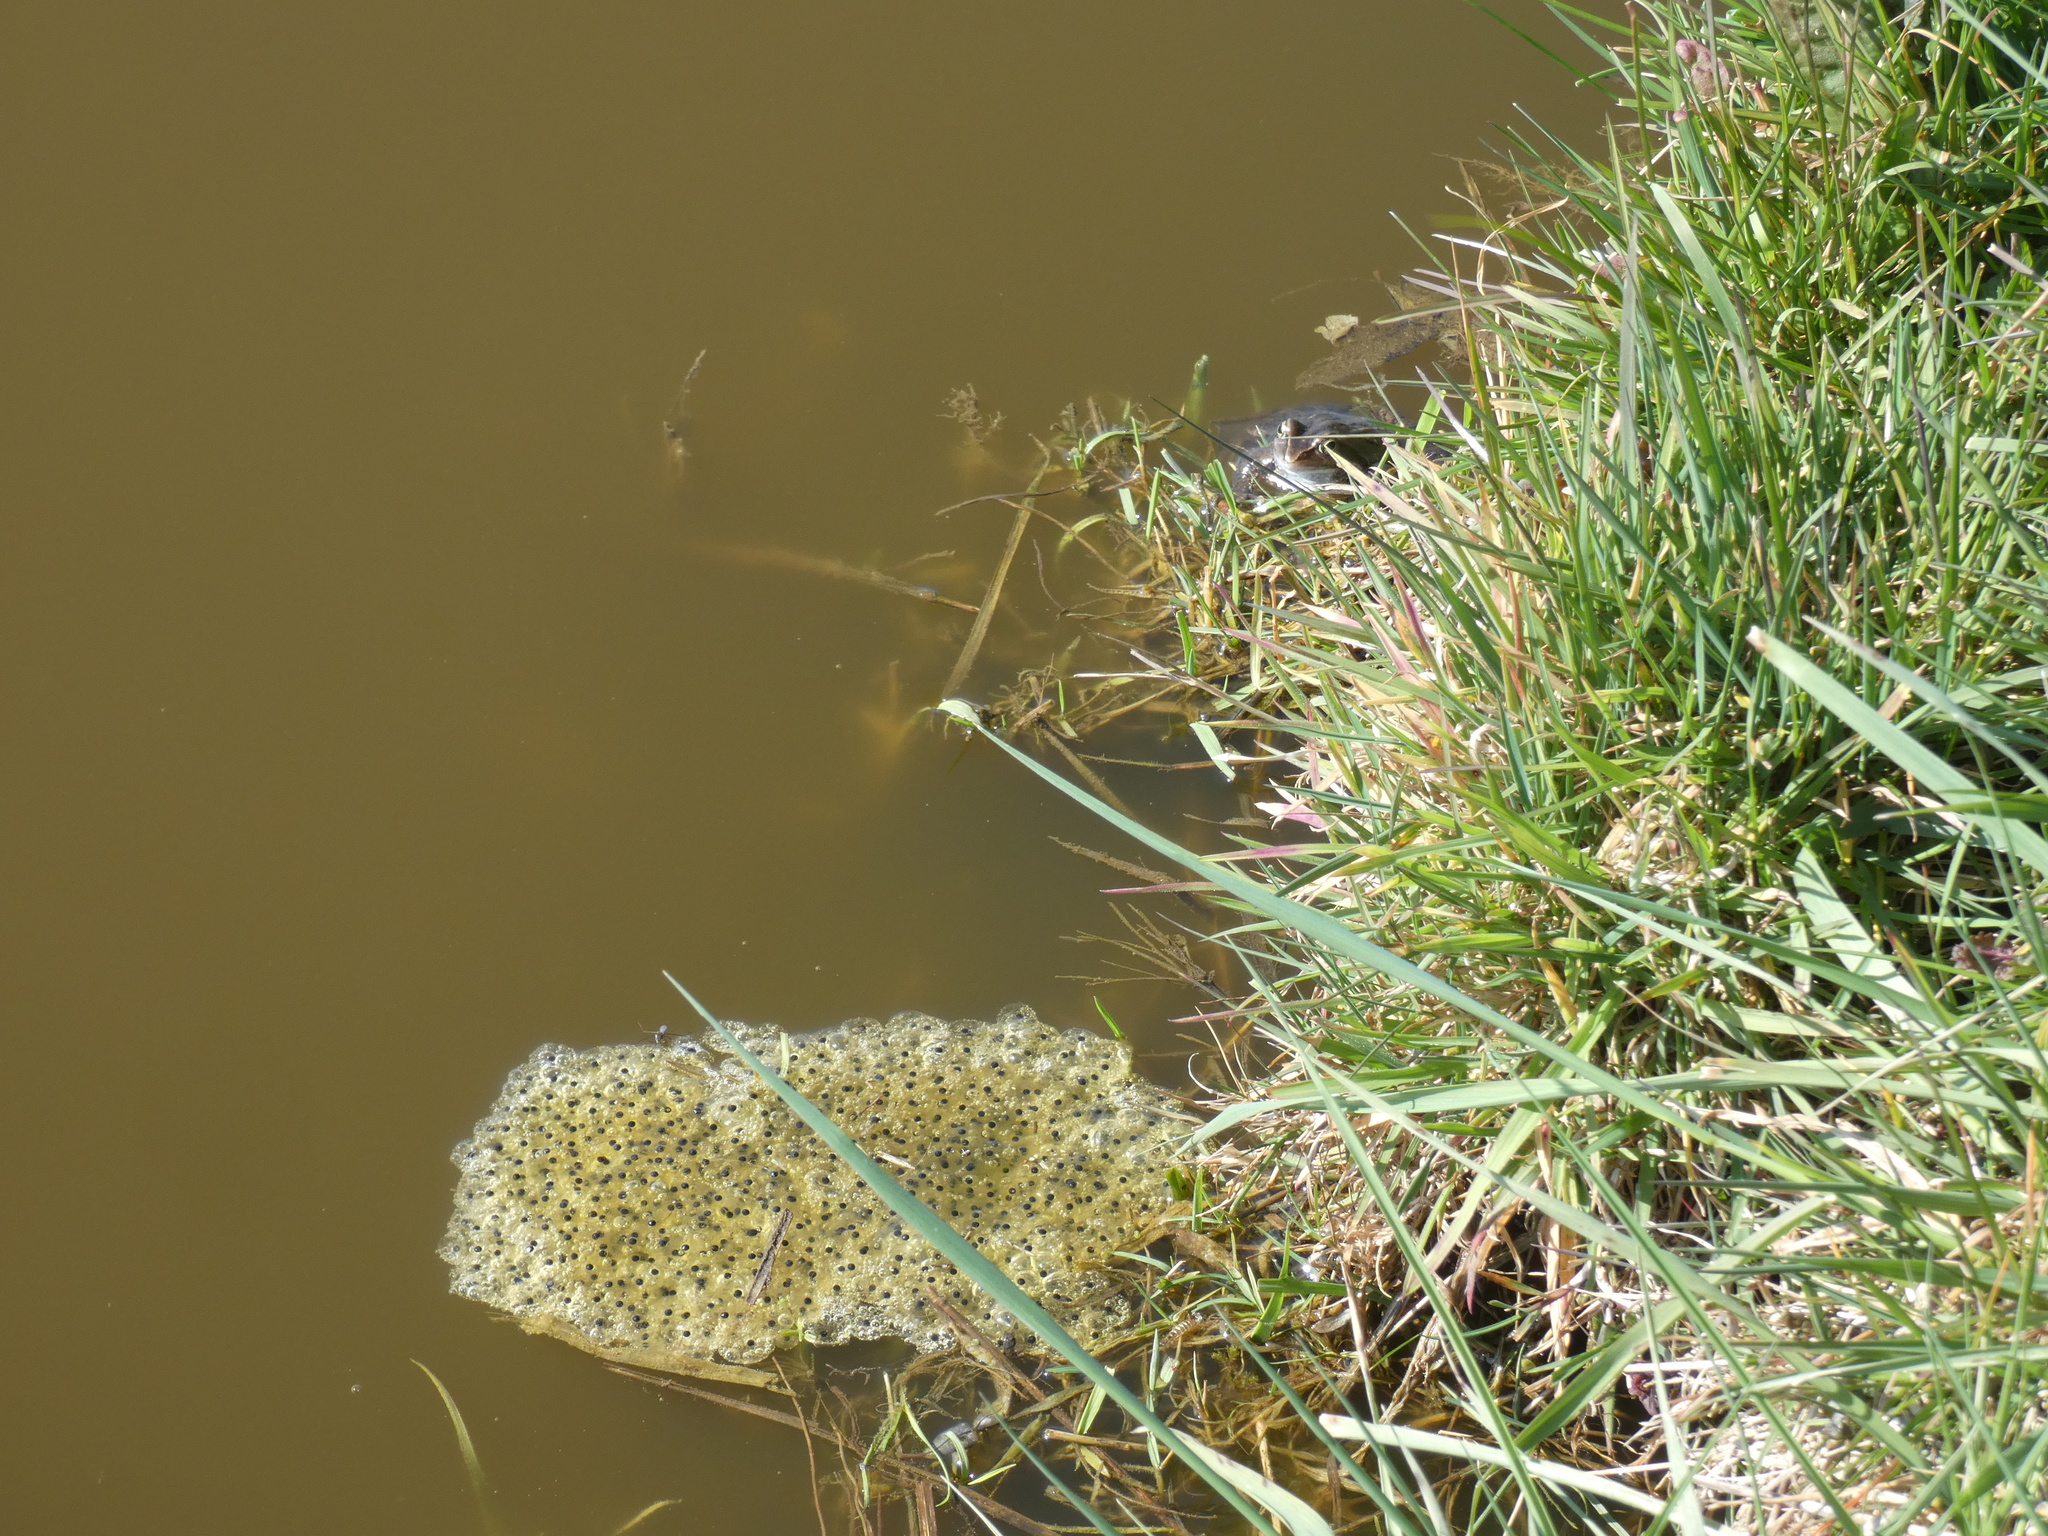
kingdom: Animalia
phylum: Chordata
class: Amphibia
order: Anura
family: Ranidae
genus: Rana
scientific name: Rana arvalis
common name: Moor frog
